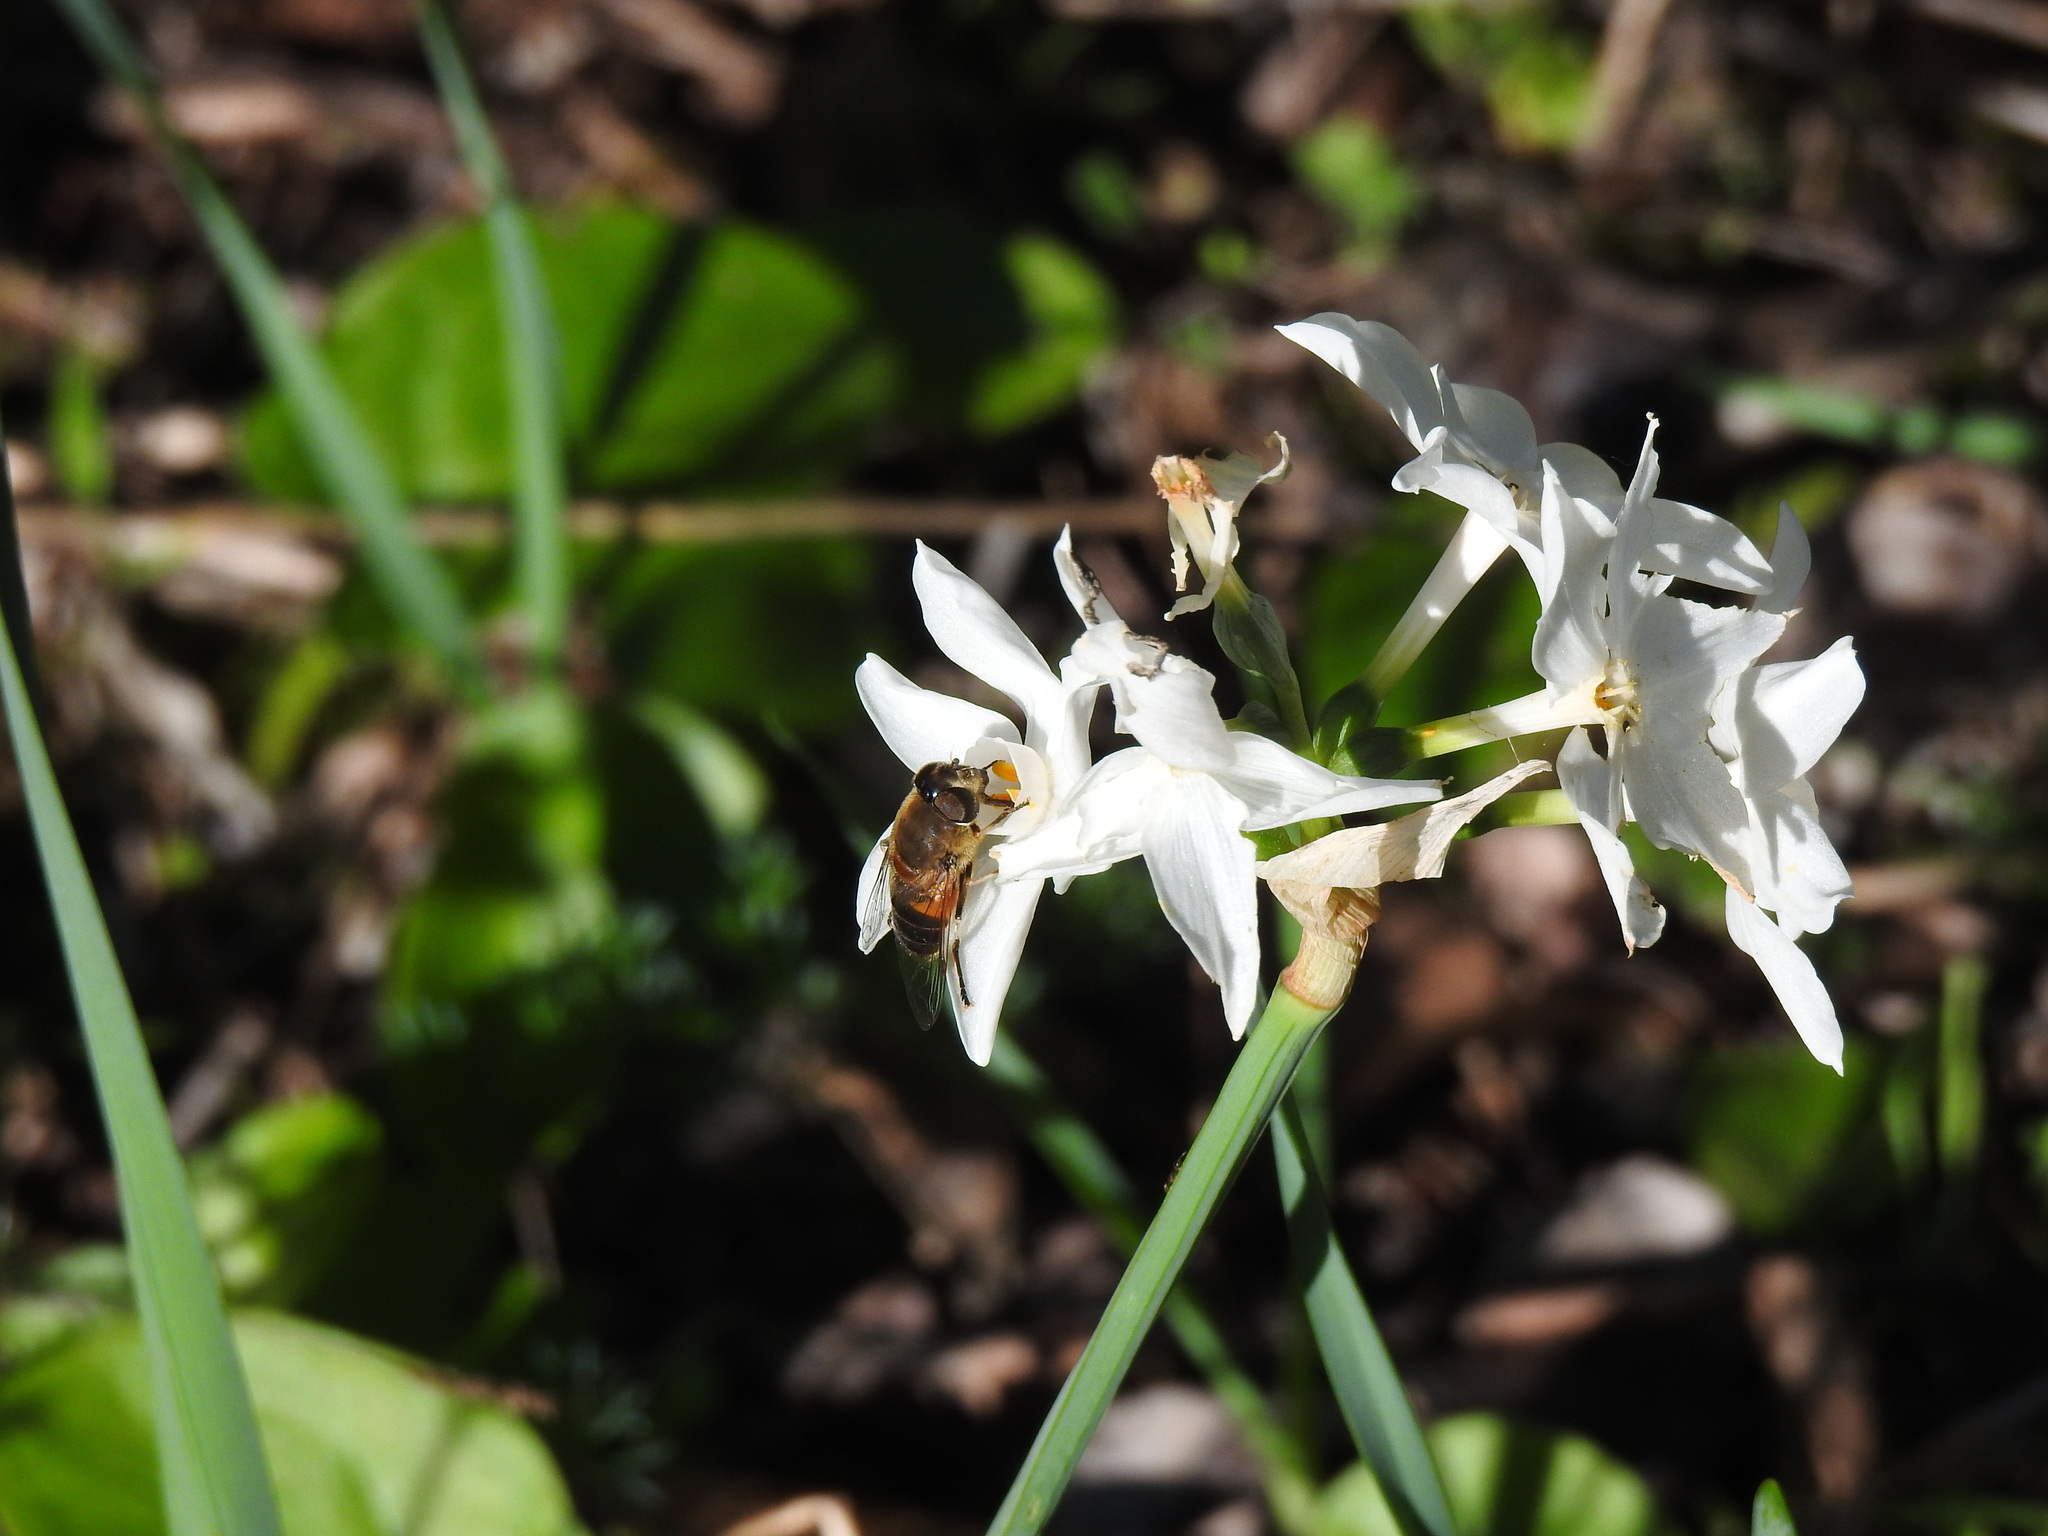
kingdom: Animalia
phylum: Arthropoda
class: Insecta
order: Diptera
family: Syrphidae
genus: Eristalis
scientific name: Eristalis pertinax
